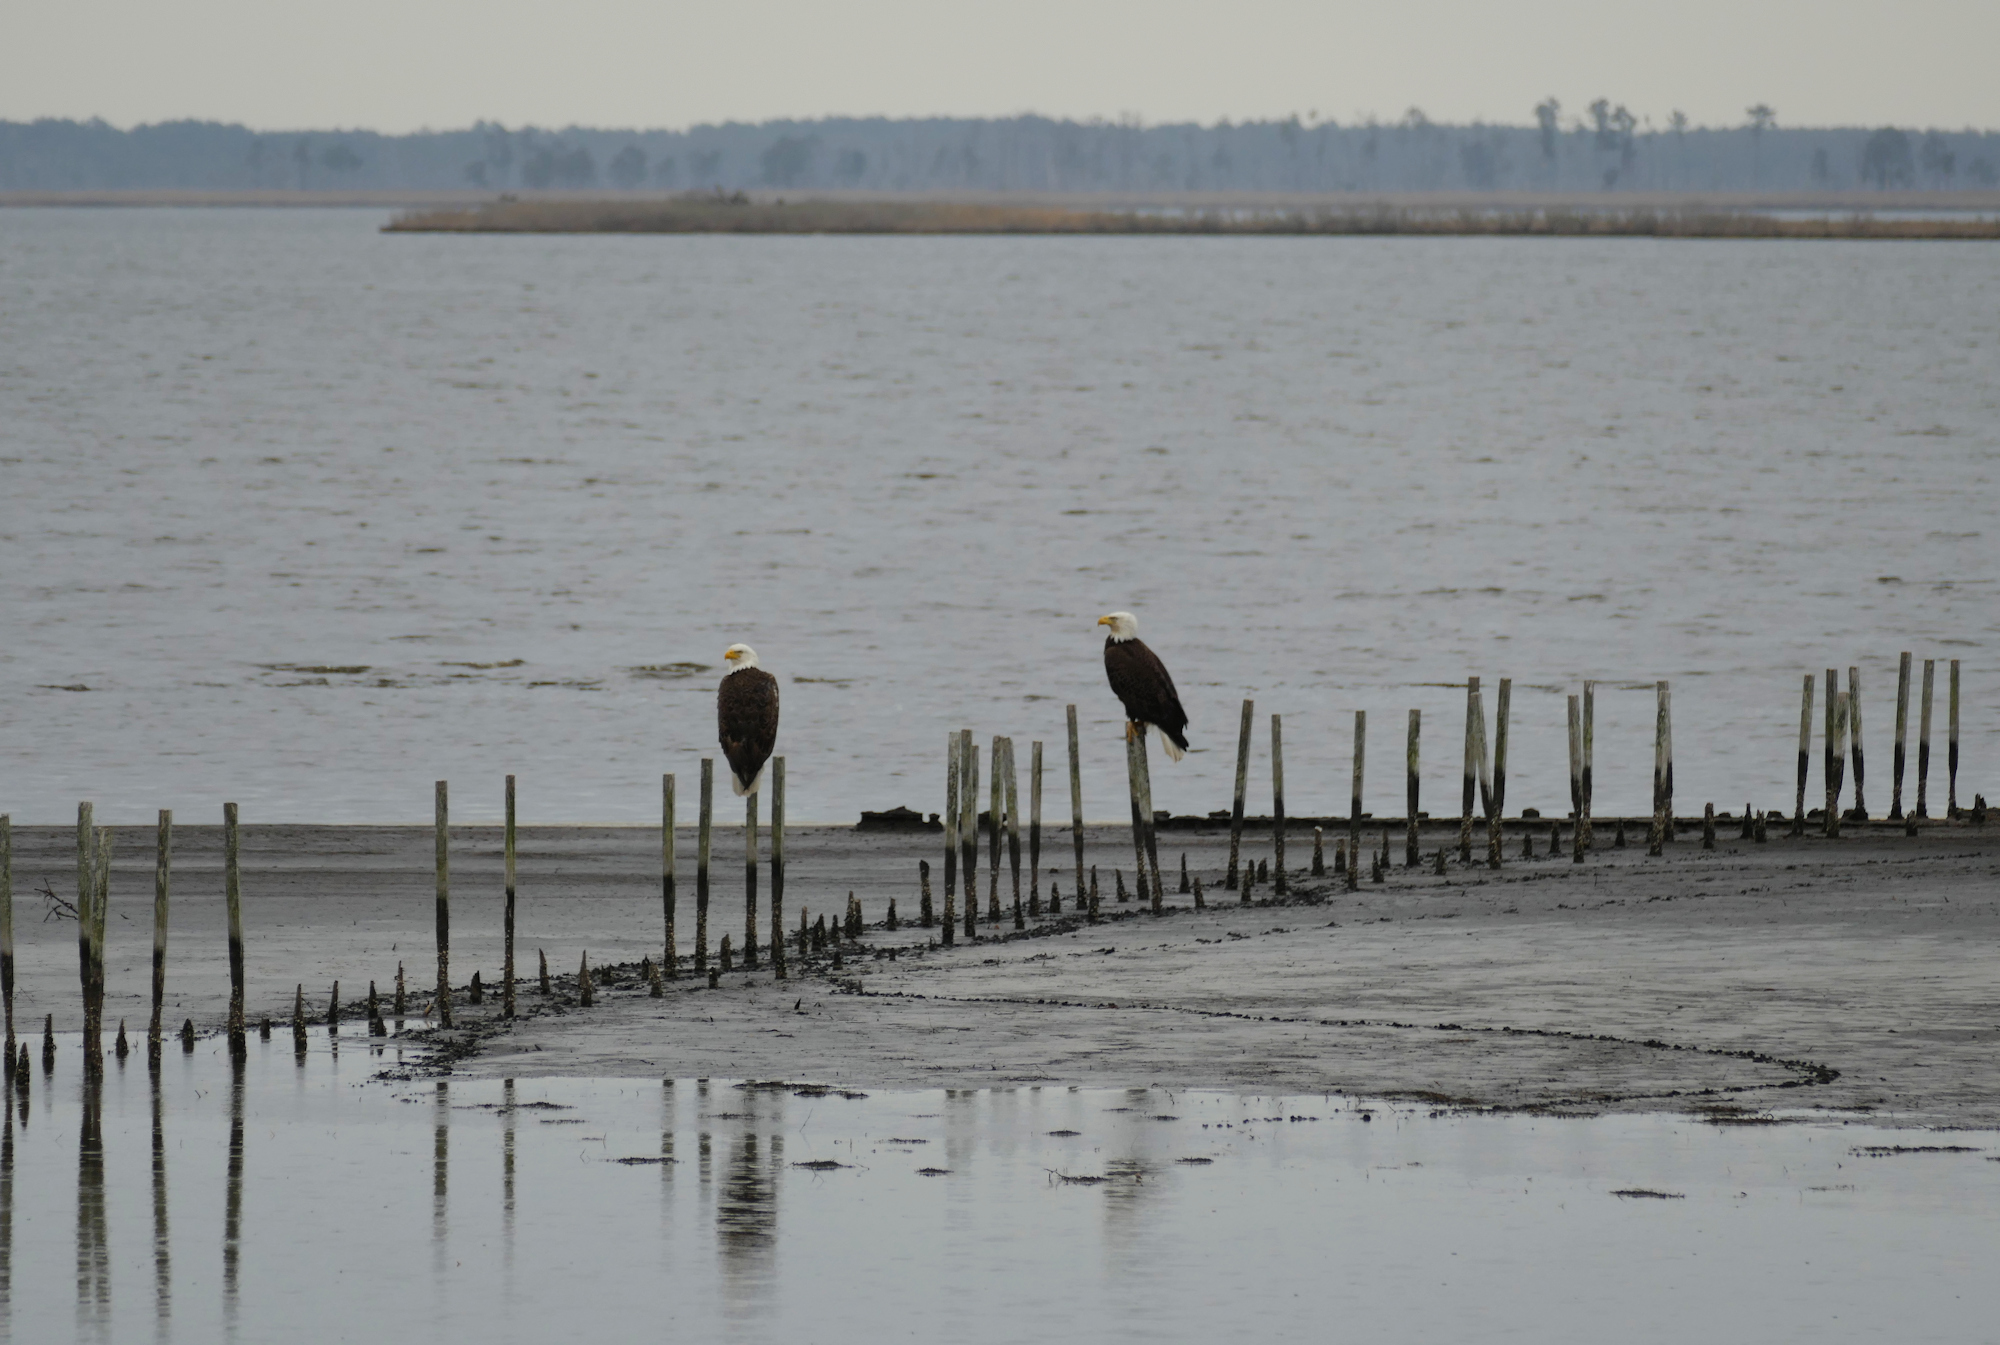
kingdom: Animalia
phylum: Chordata
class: Aves
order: Accipitriformes
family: Accipitridae
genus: Haliaeetus
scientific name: Haliaeetus leucocephalus
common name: Bald eagle
